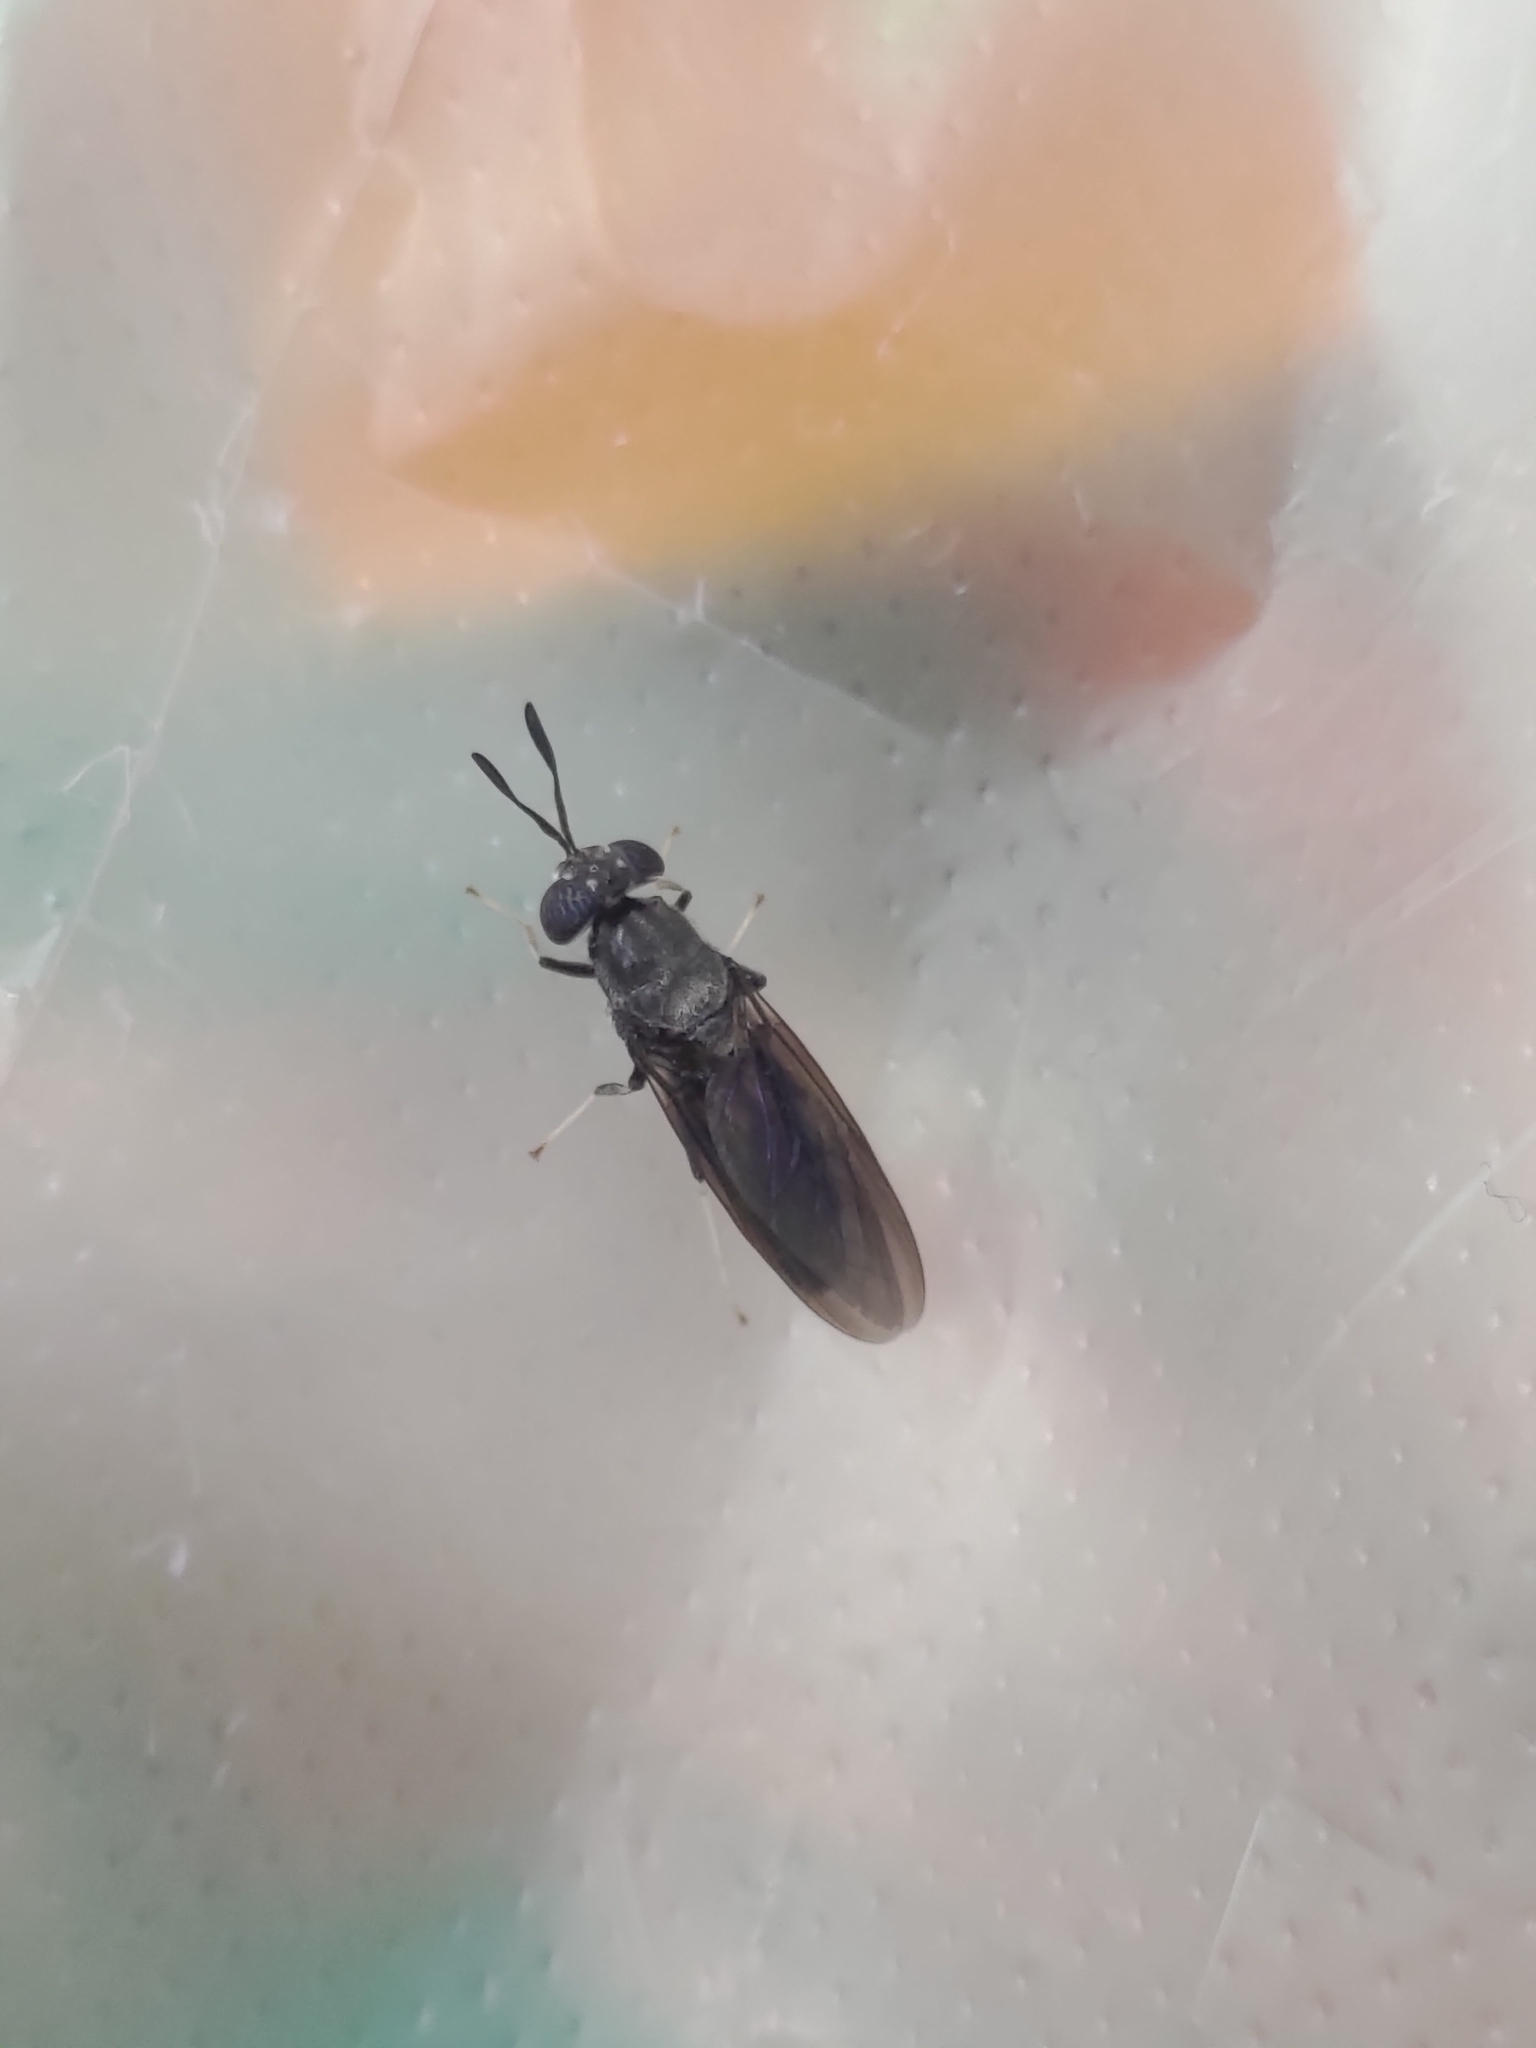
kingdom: Animalia
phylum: Arthropoda
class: Insecta
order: Diptera
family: Stratiomyidae
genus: Hermetia
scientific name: Hermetia illucens
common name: Black soldier fly
